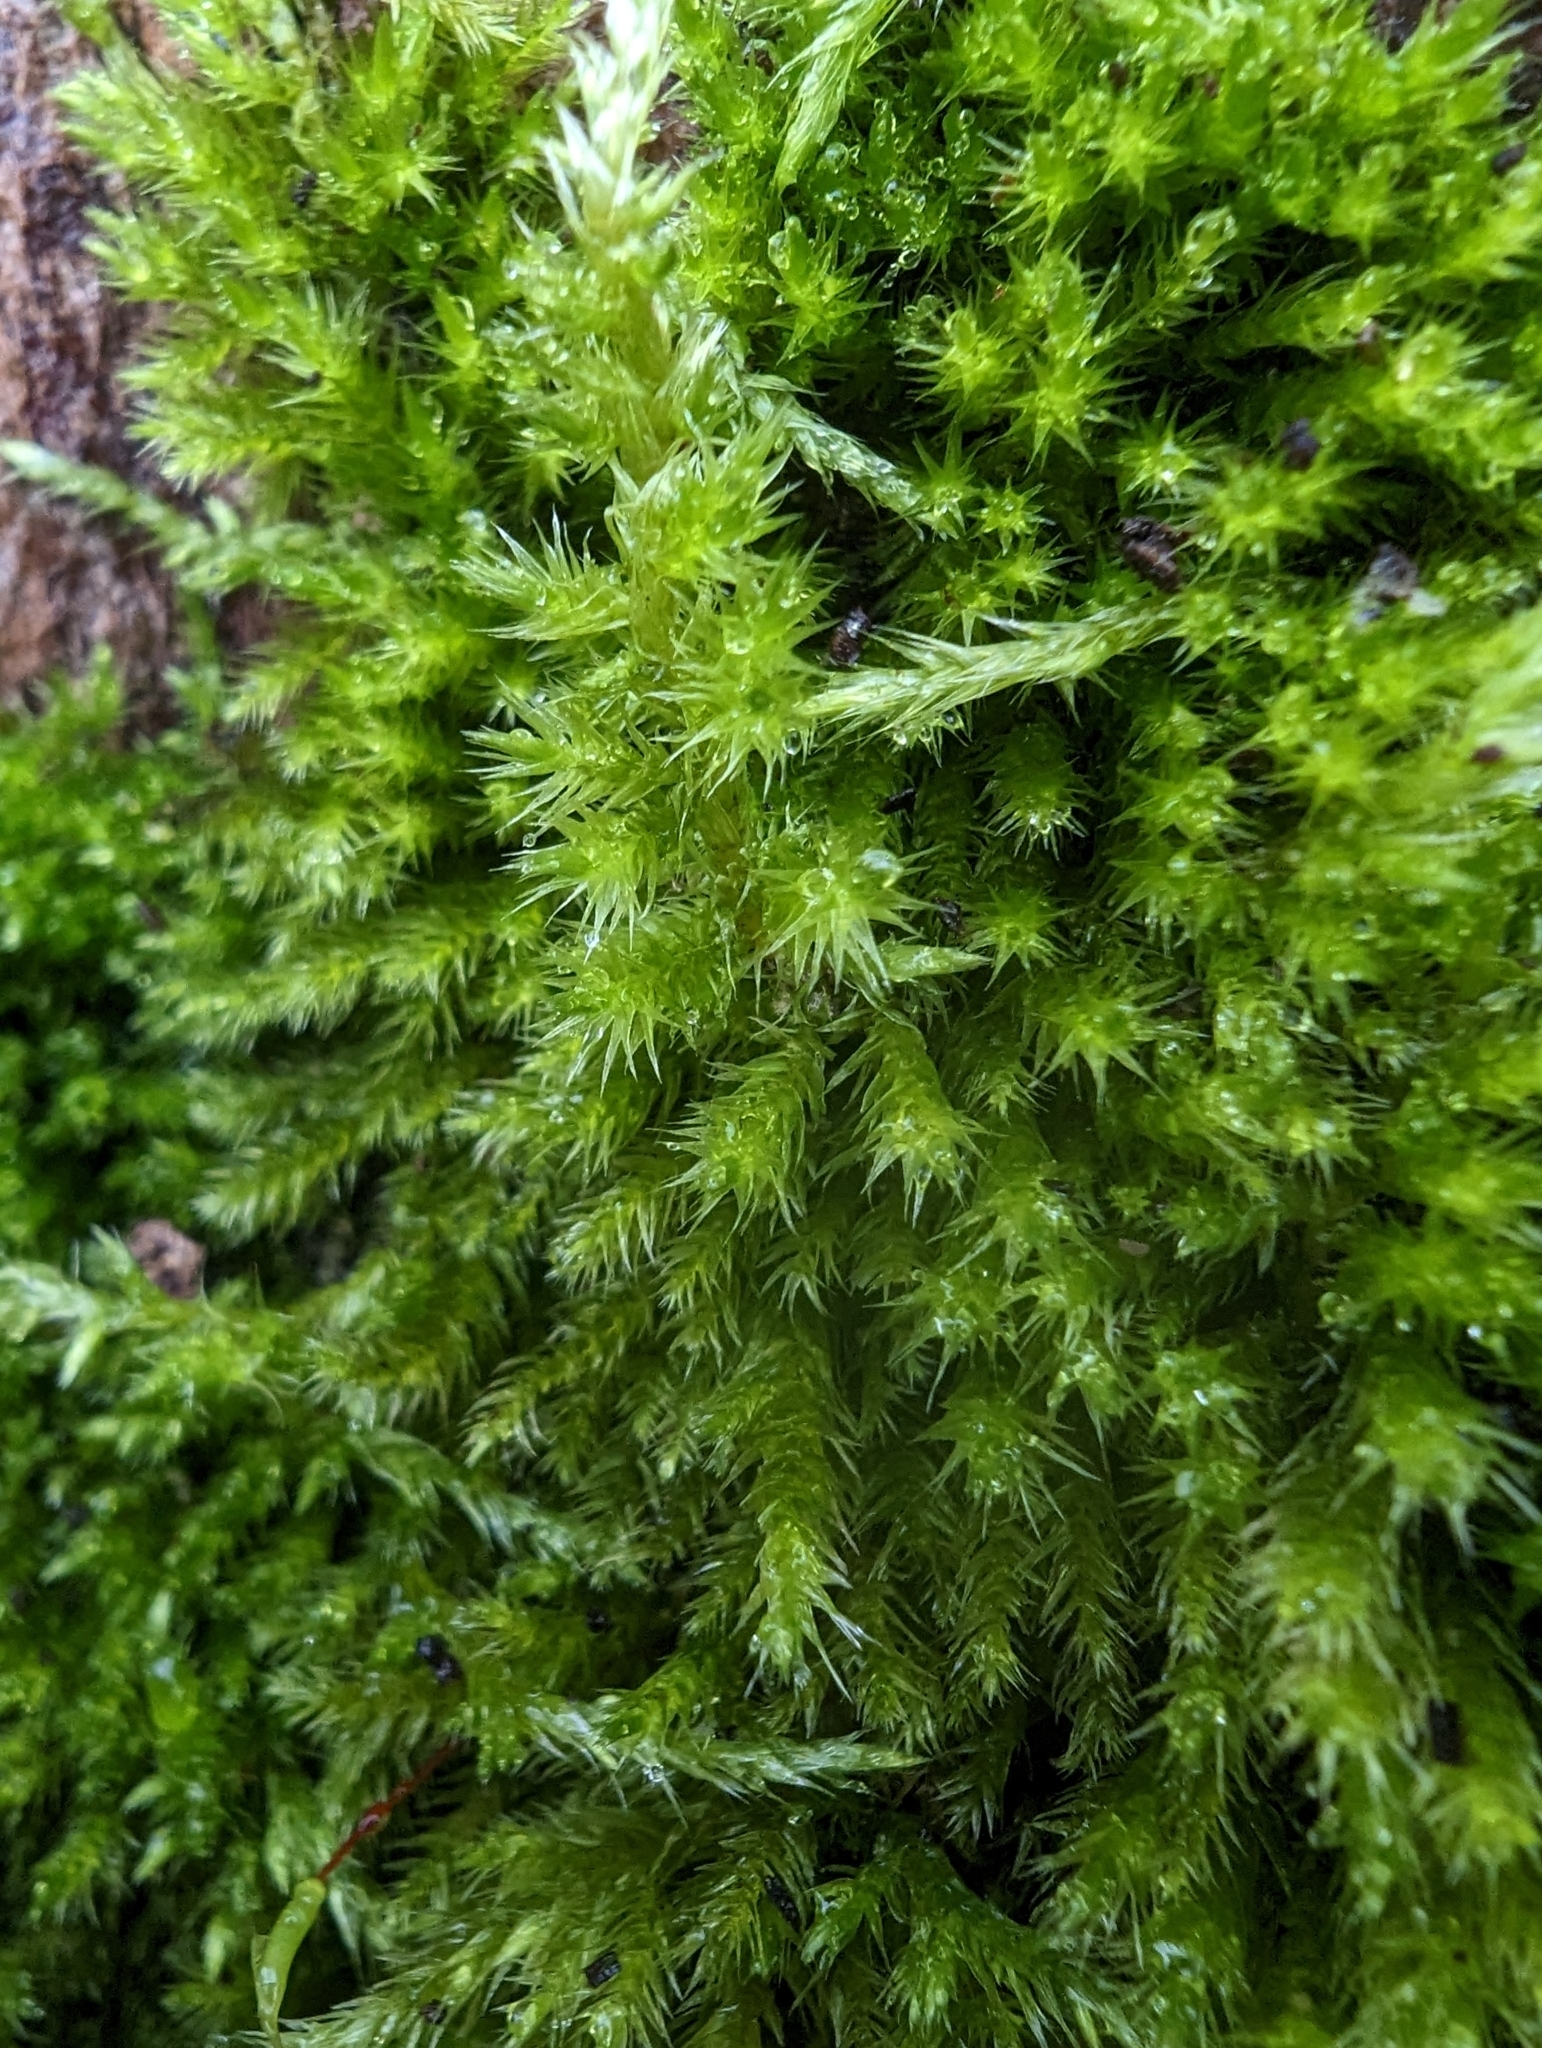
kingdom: Plantae
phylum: Bryophyta
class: Bryopsida
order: Hypnales
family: Brachytheciaceae
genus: Homalothecium
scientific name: Homalothecium fulgescens
